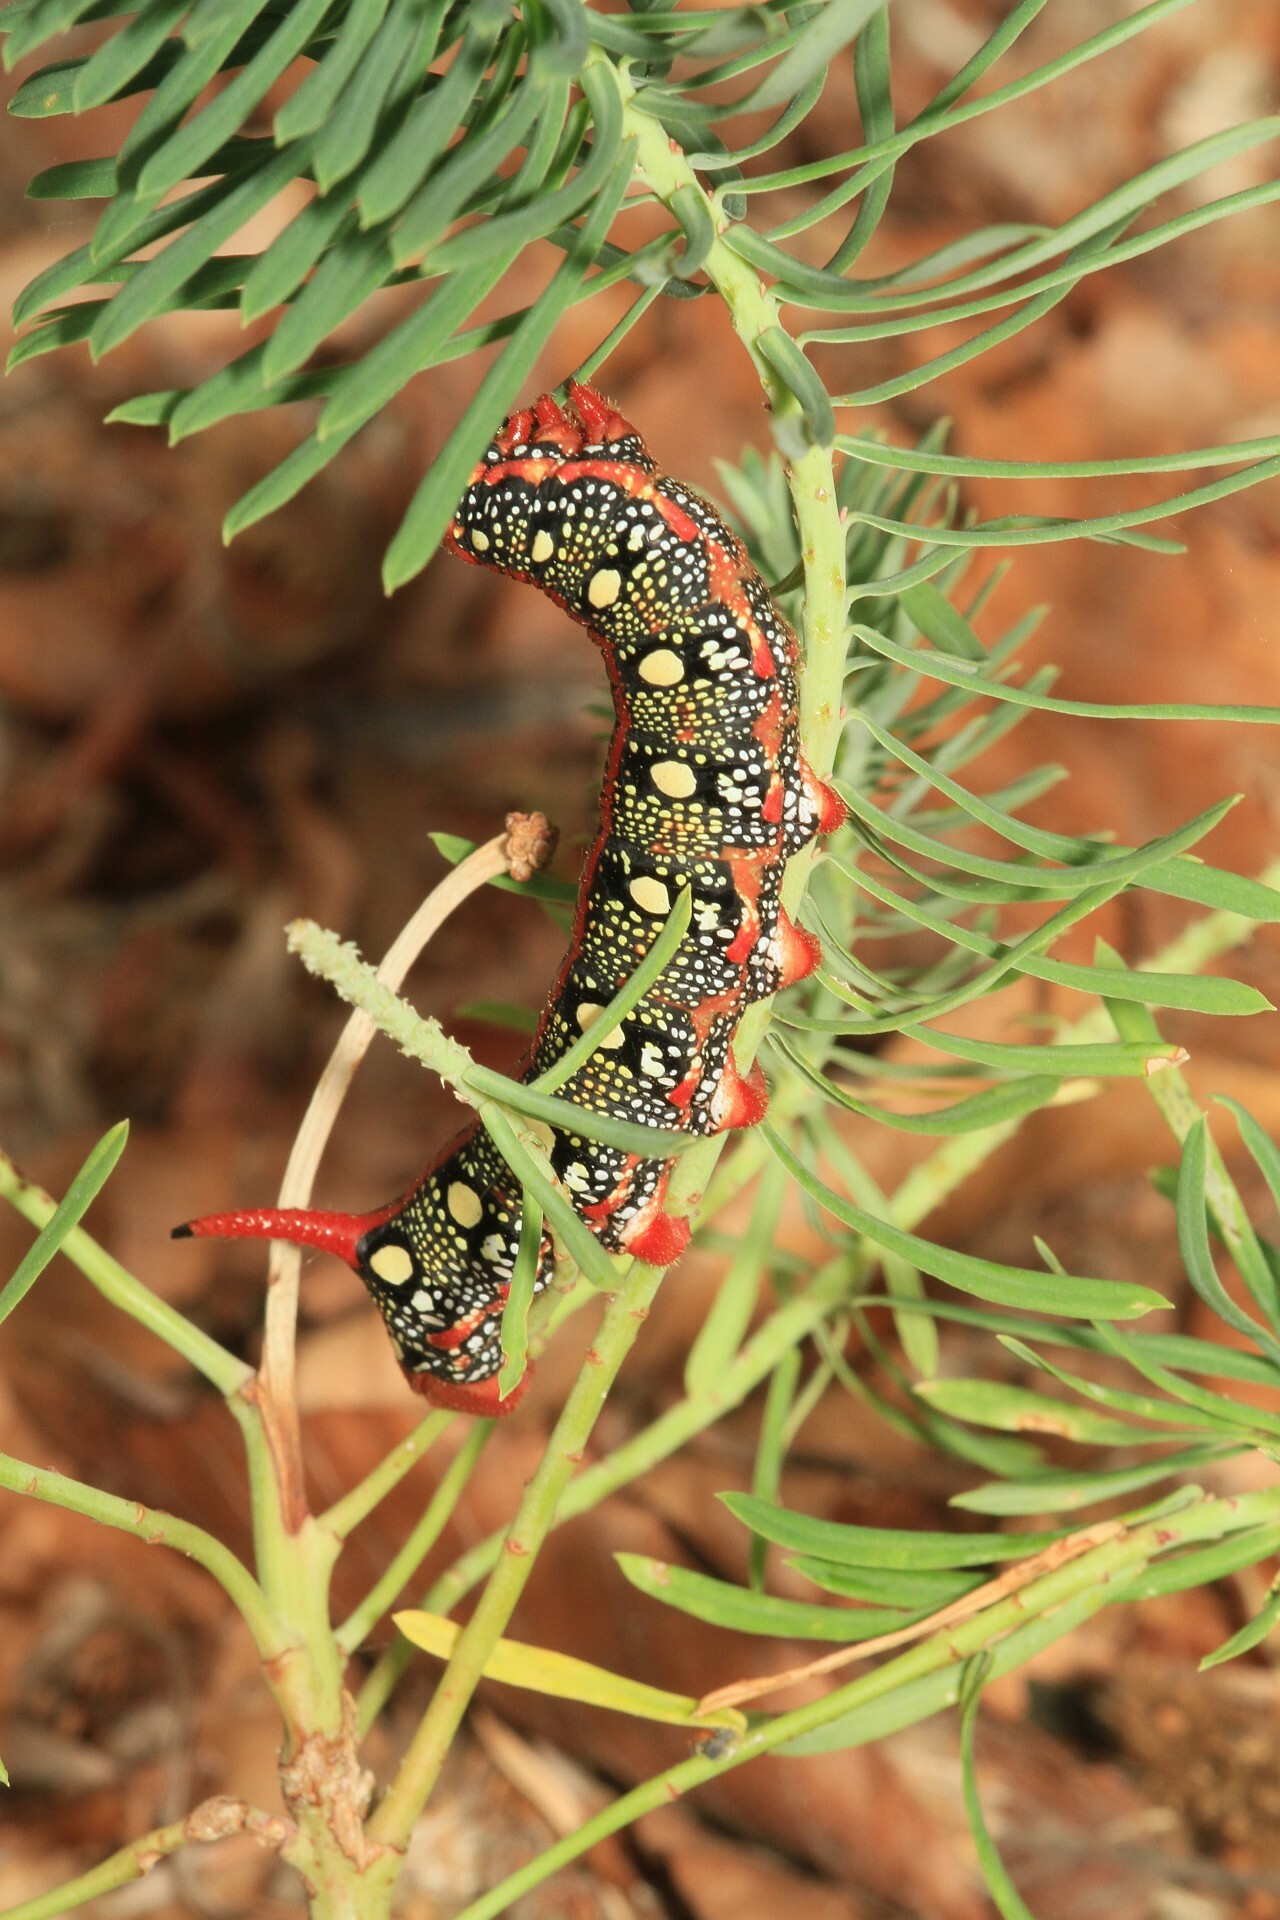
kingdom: Animalia
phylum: Arthropoda
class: Insecta
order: Lepidoptera
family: Sphingidae
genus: Hyles
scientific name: Hyles euphorbiae
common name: Spurge hawk-moth
